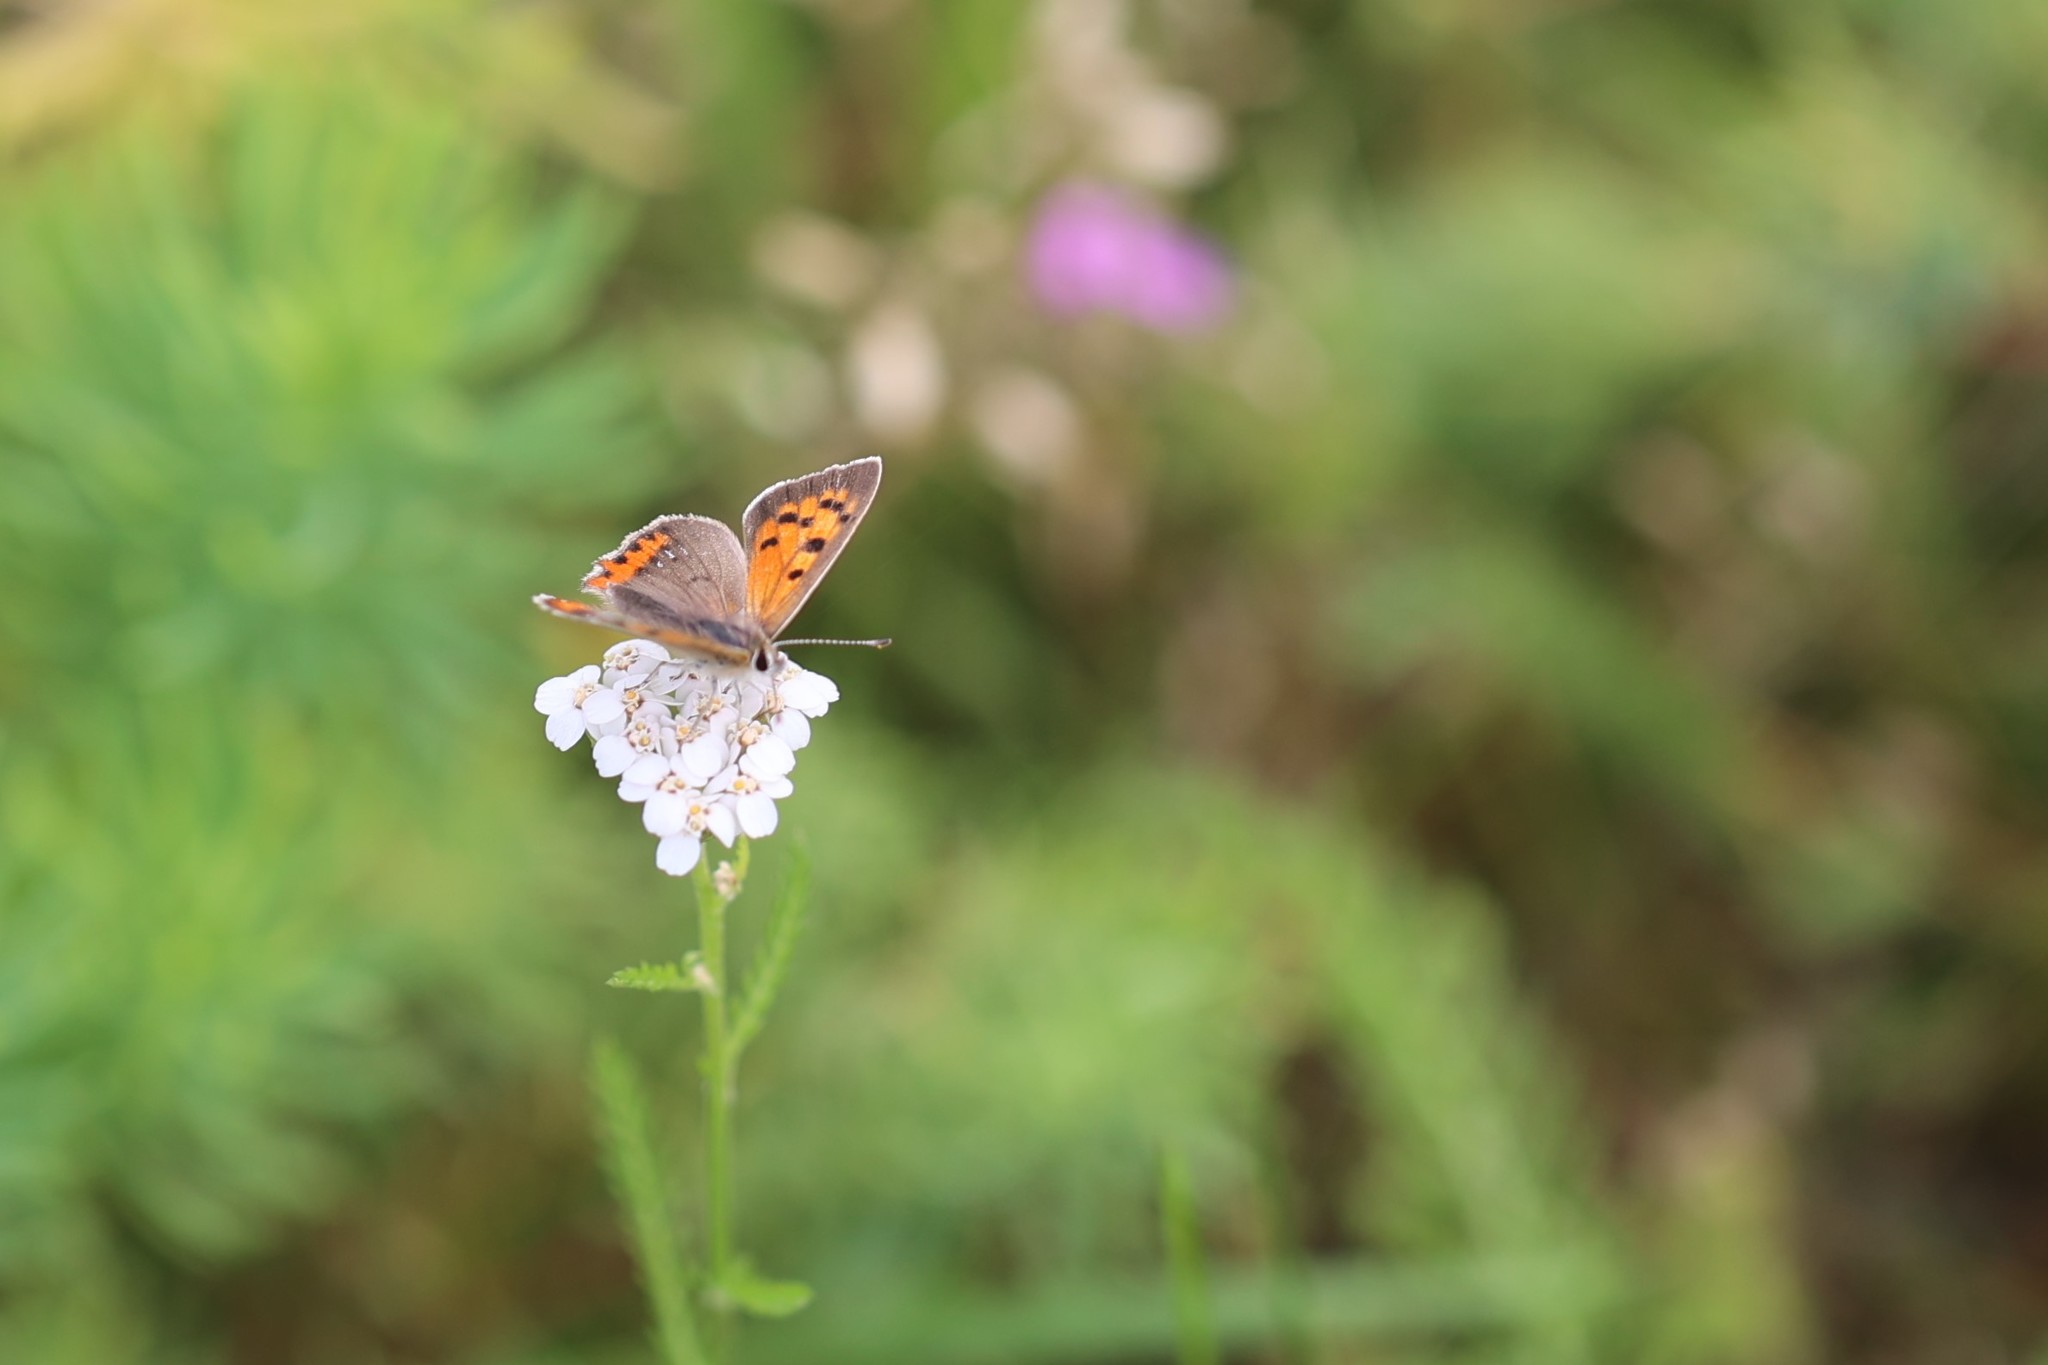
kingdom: Animalia
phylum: Arthropoda
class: Insecta
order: Lepidoptera
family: Lycaenidae
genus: Lycaena
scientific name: Lycaena phlaeas
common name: Small copper
